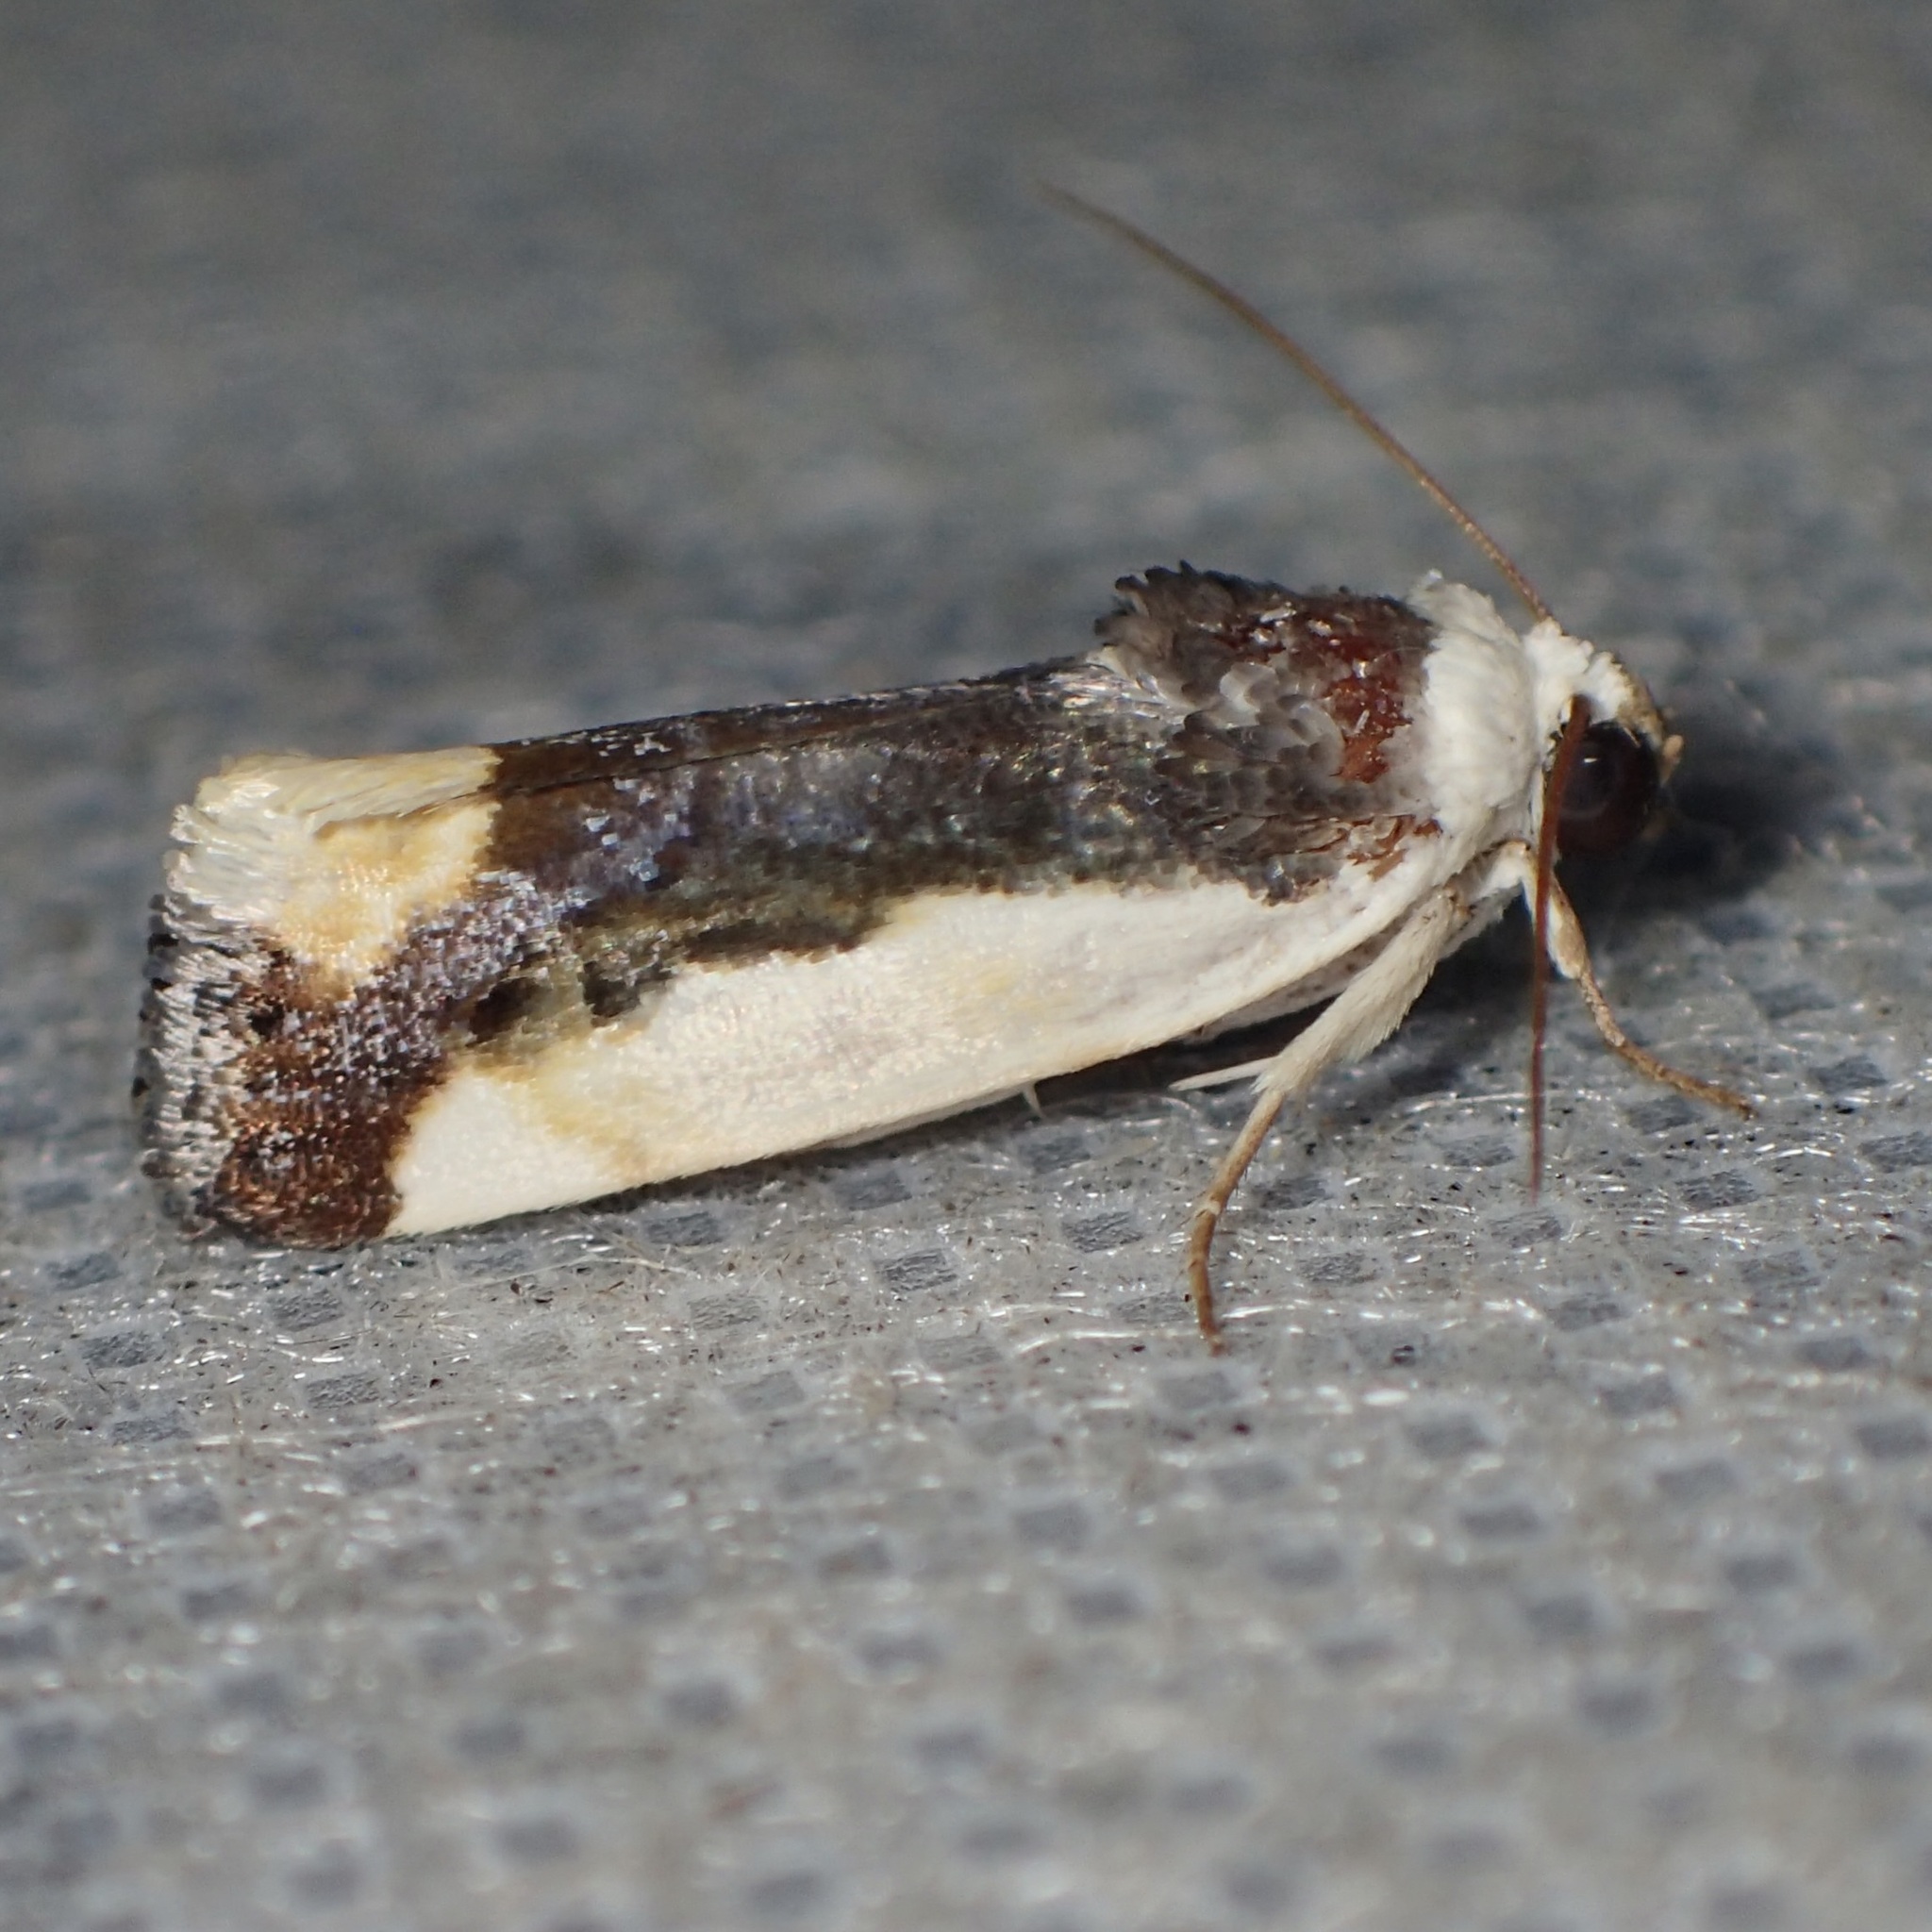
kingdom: Animalia
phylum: Arthropoda
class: Insecta
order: Lepidoptera
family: Noctuidae
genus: Acontia
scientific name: Acontia Tarache expolita
